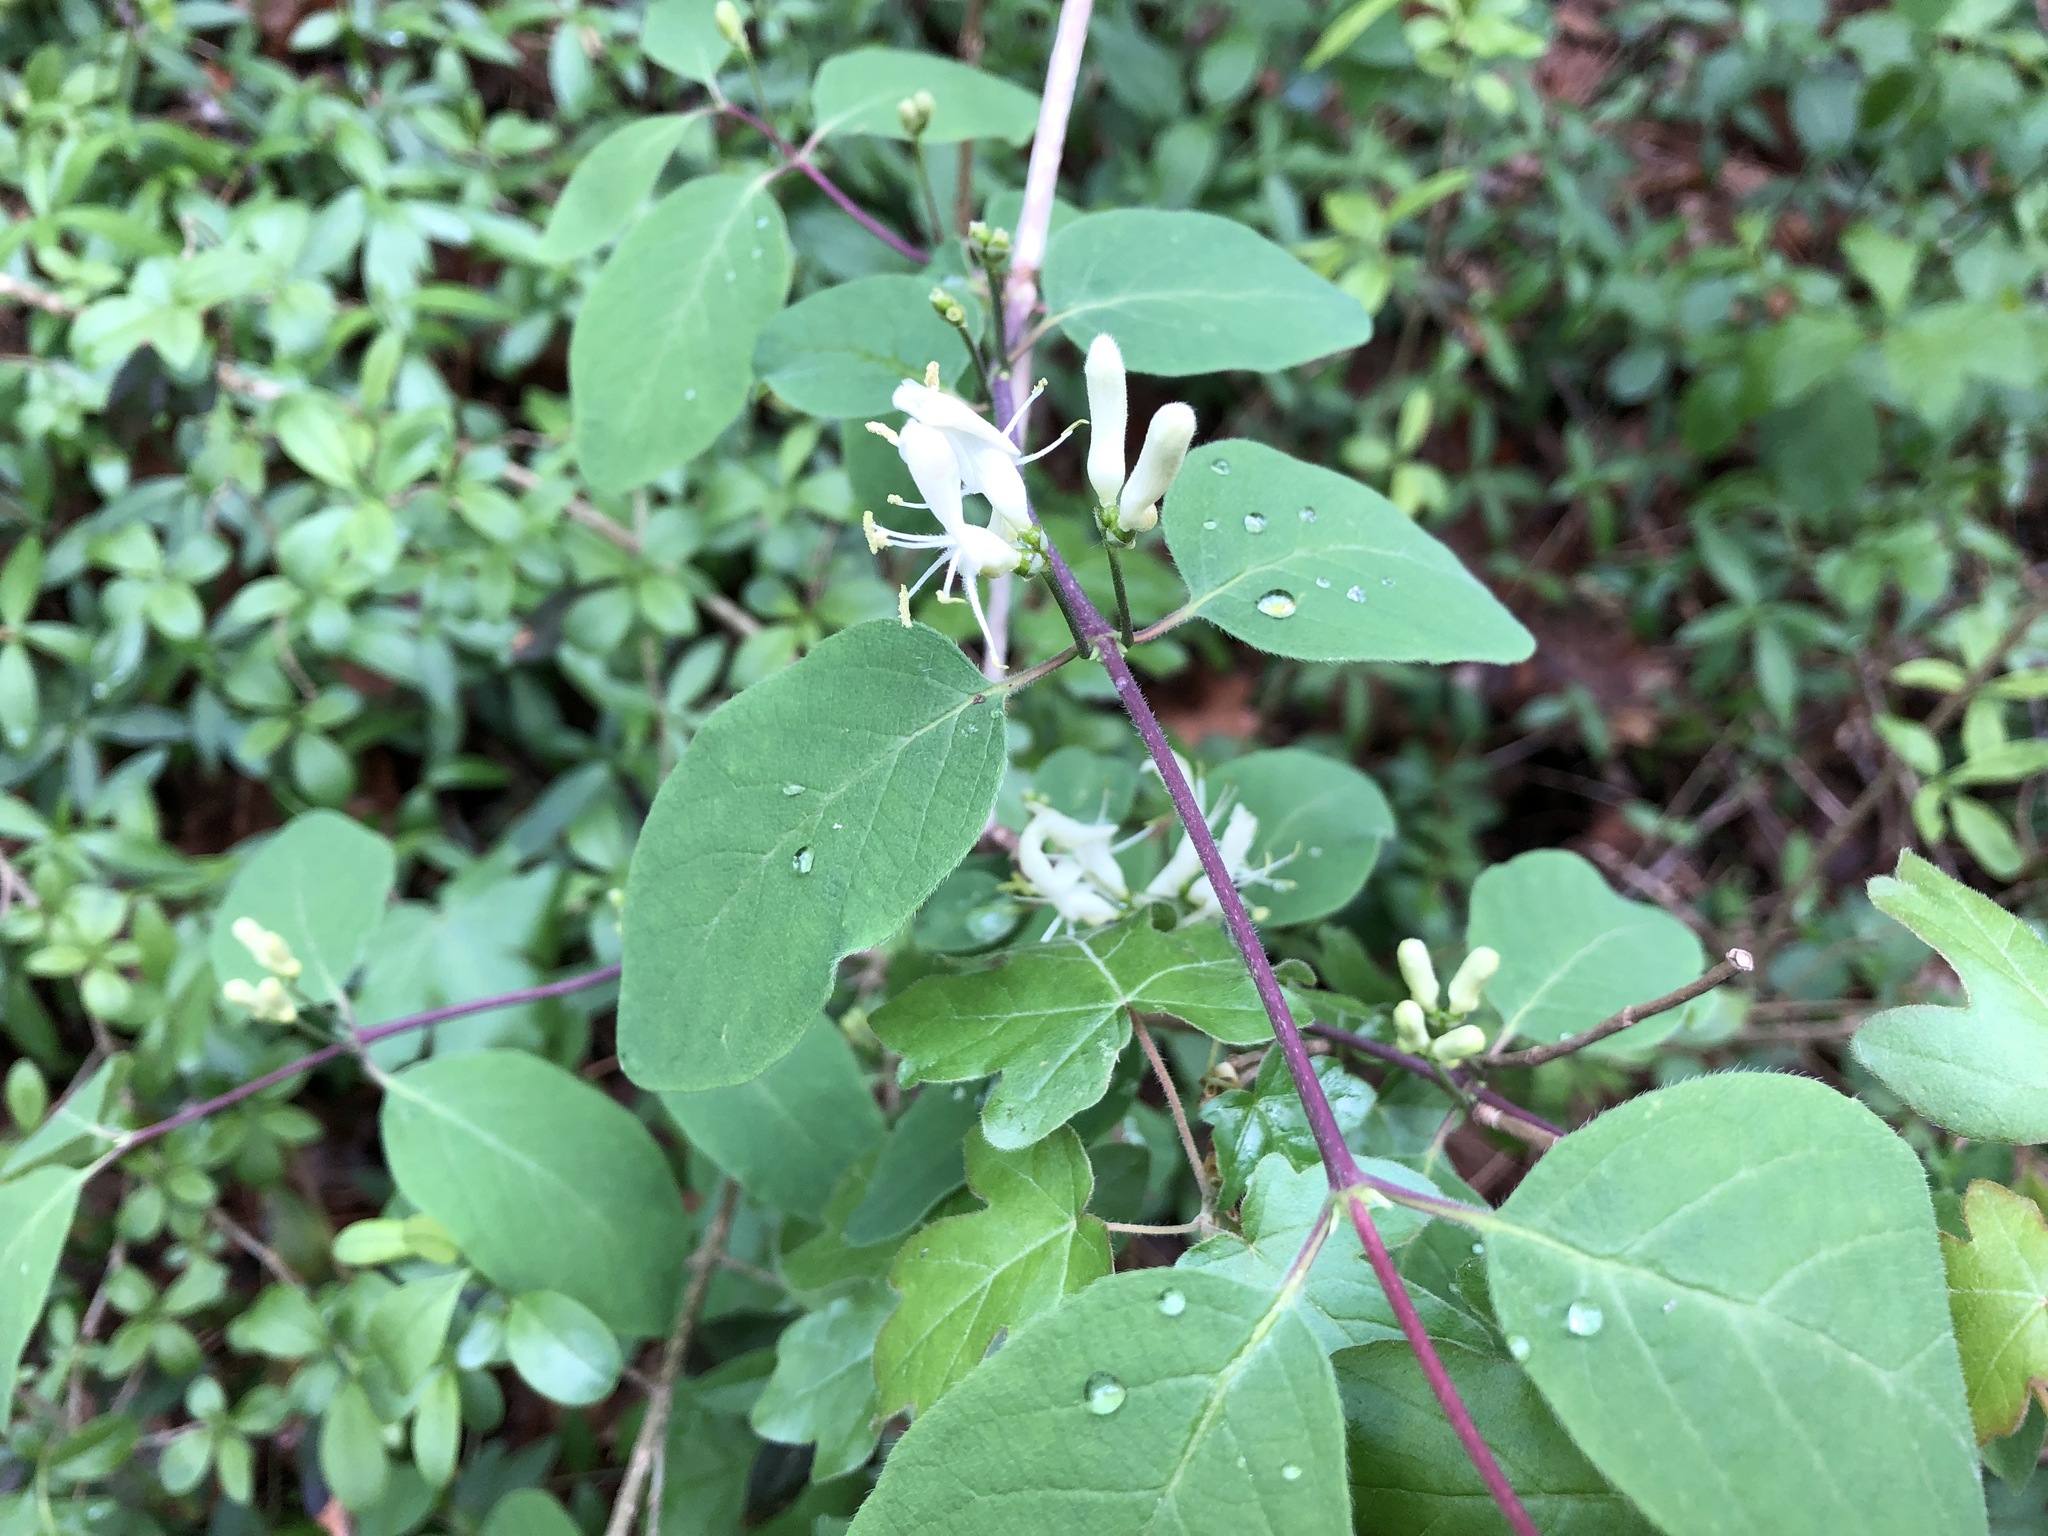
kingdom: Plantae
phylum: Tracheophyta
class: Magnoliopsida
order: Dipsacales
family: Caprifoliaceae
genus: Lonicera
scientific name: Lonicera xylosteum
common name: Fly honeysuckle
